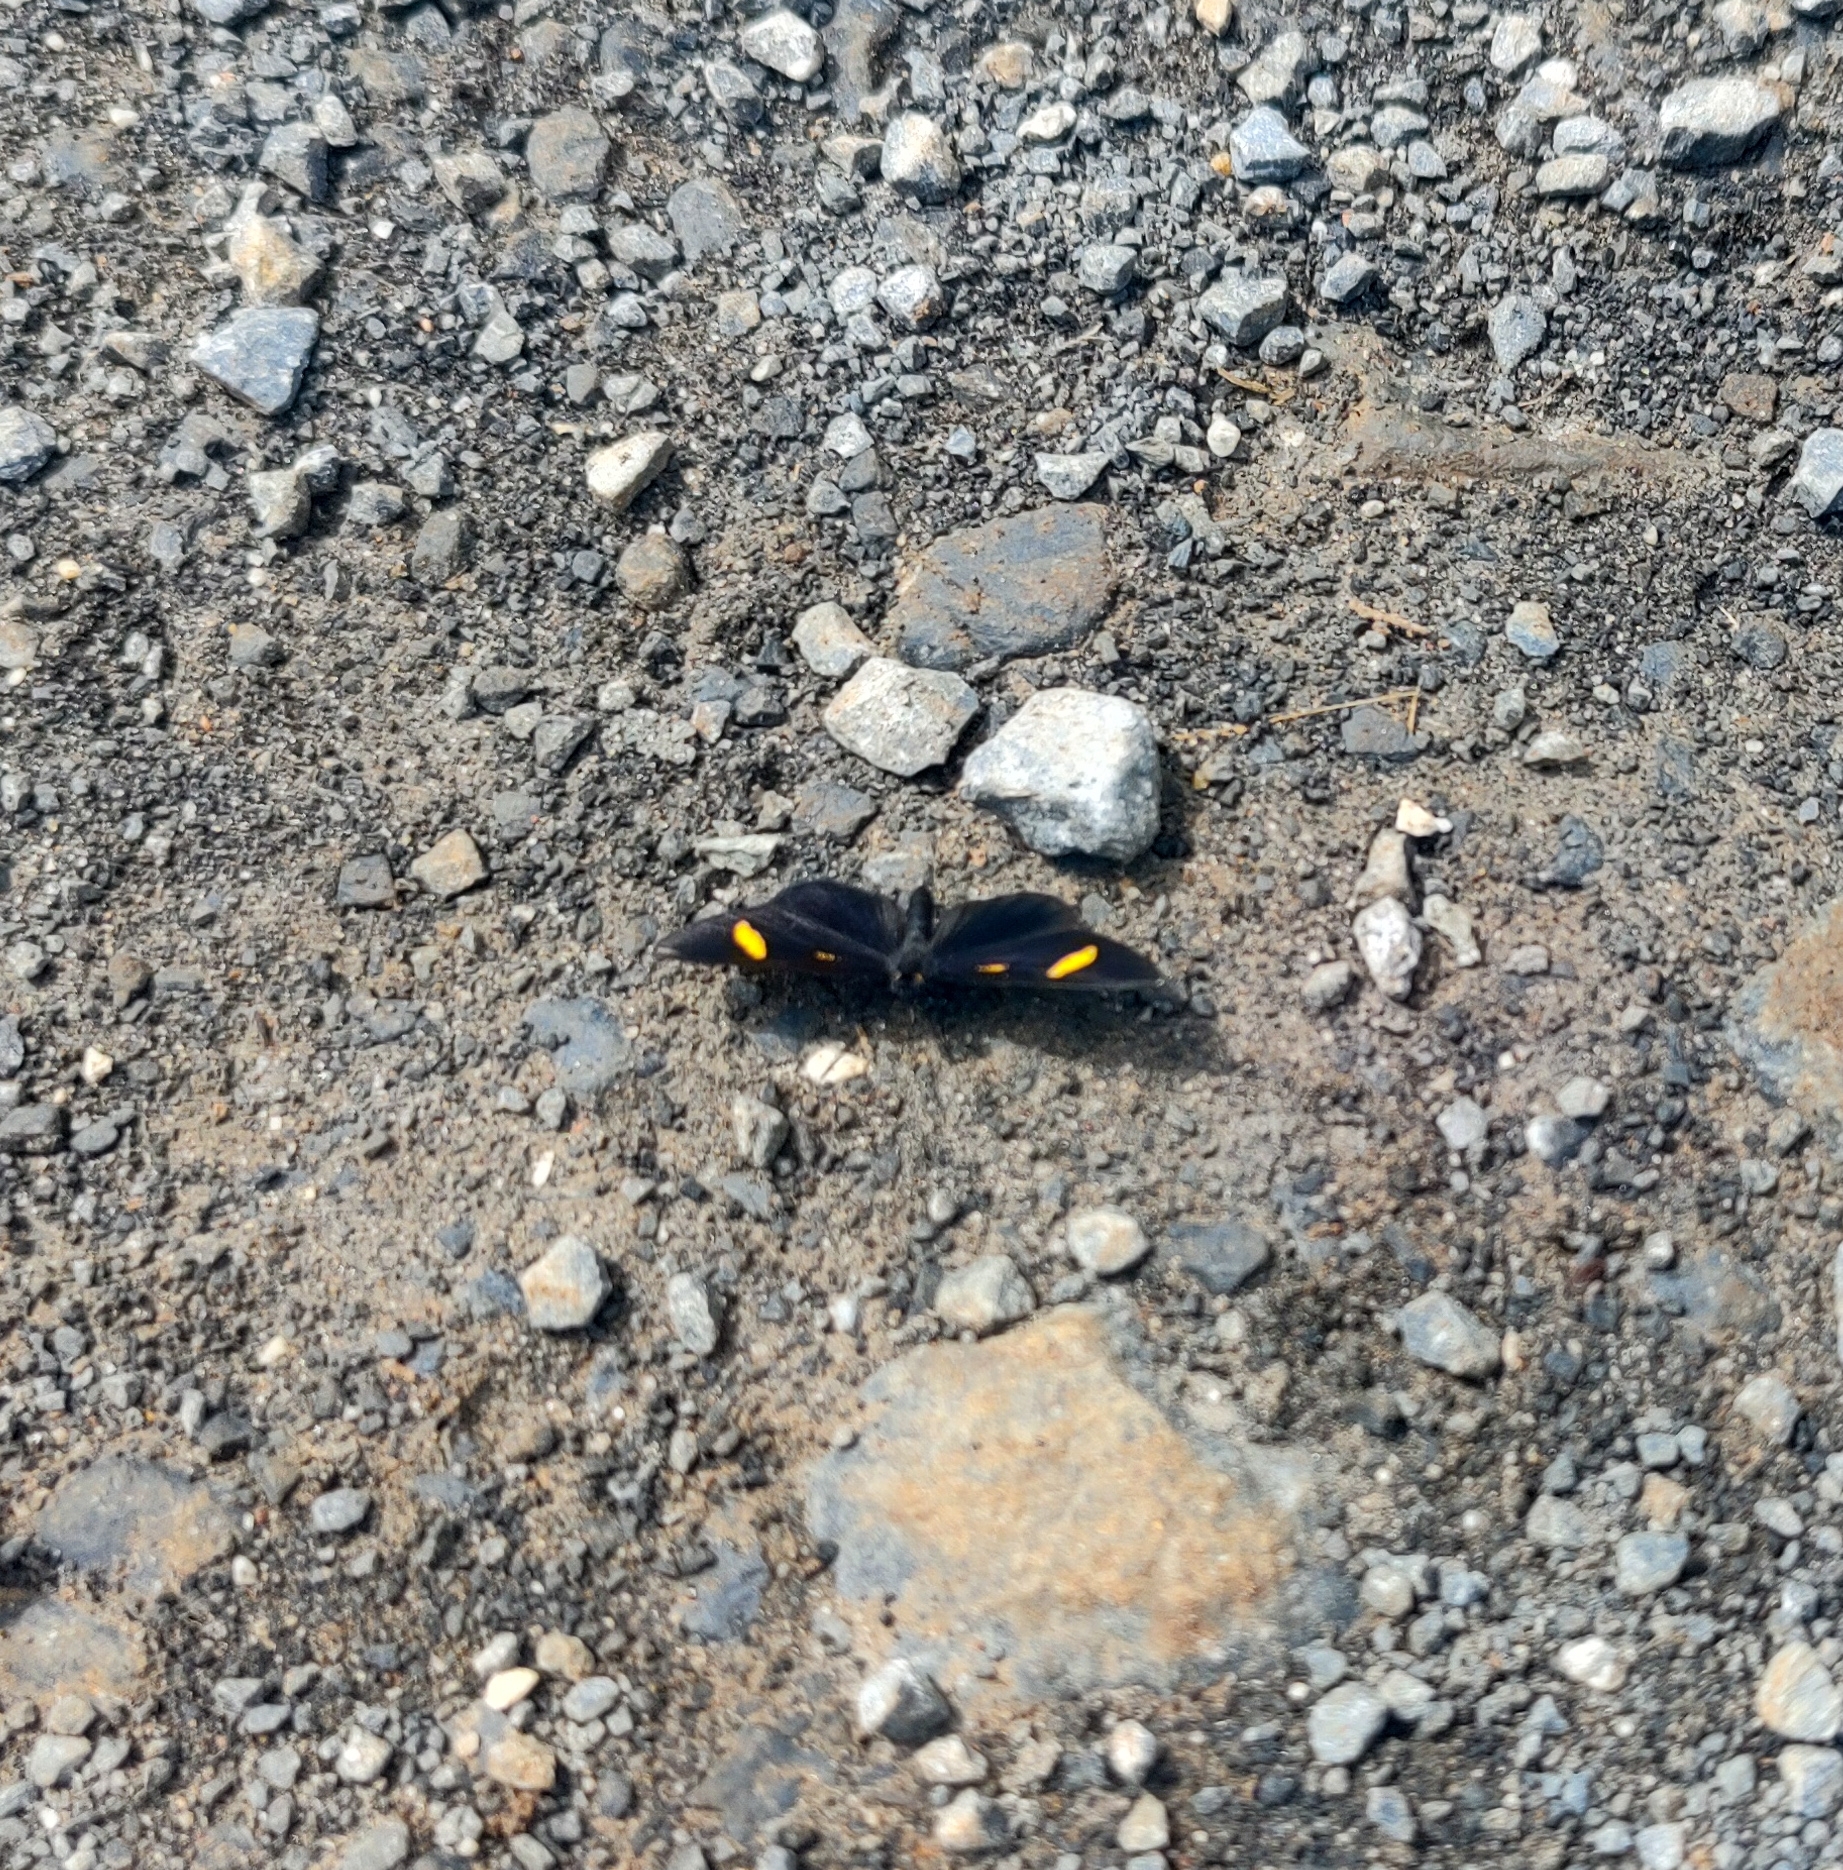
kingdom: Animalia
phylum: Arthropoda
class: Insecta
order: Lepidoptera
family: Riodinidae
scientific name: Riodinidae
